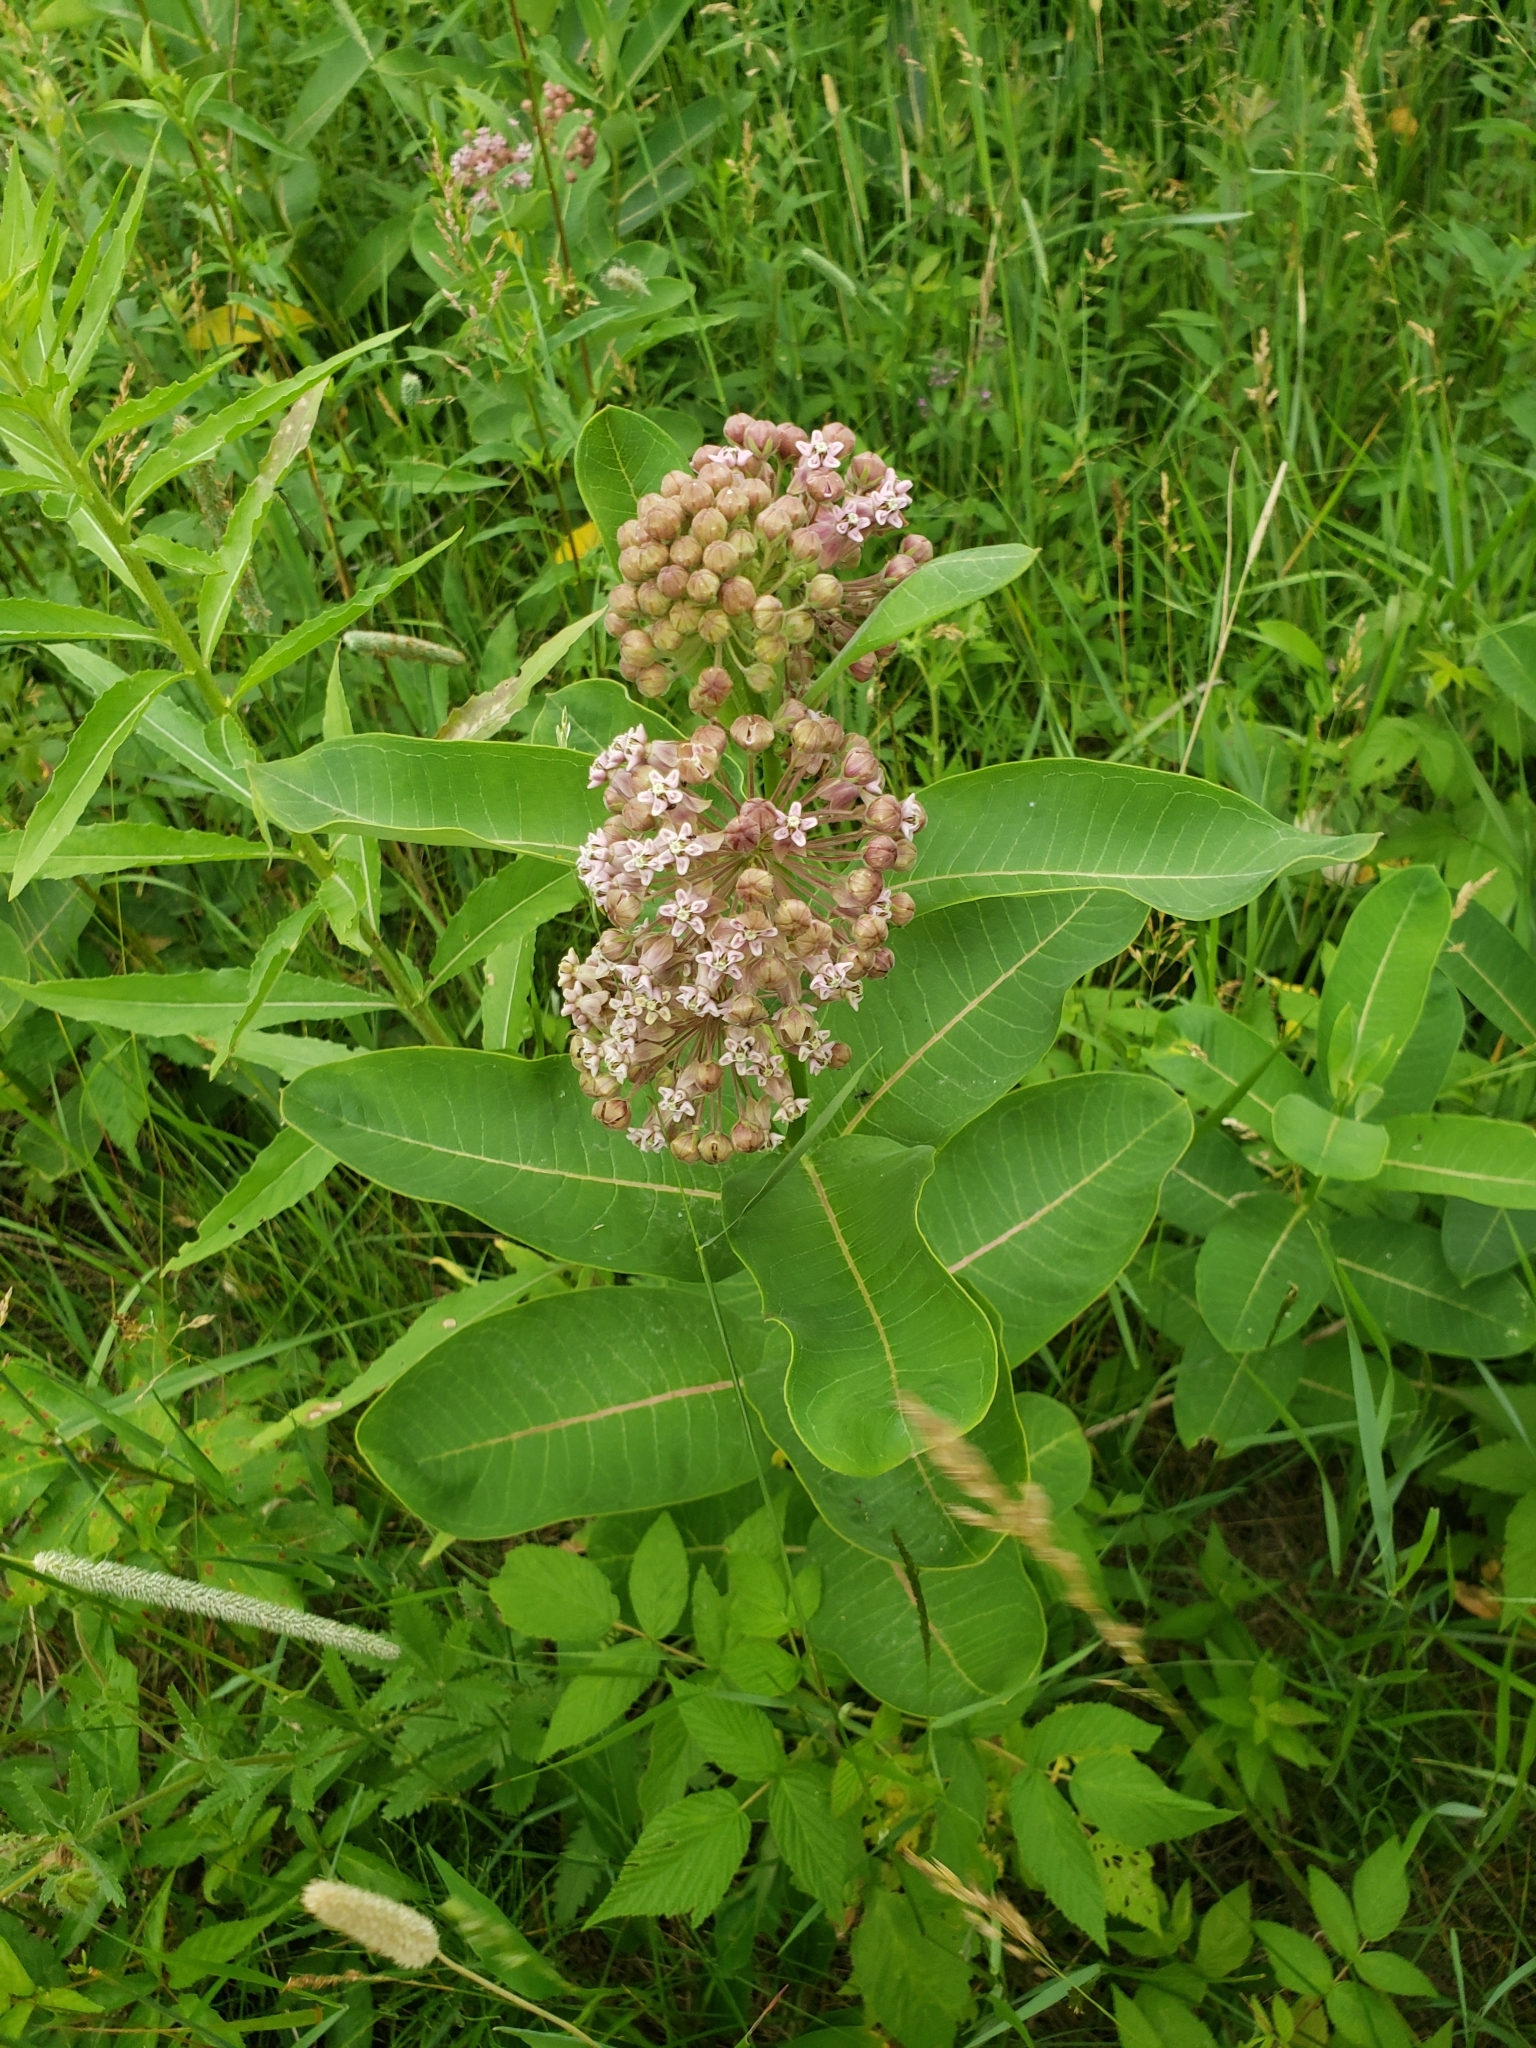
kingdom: Plantae
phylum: Tracheophyta
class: Magnoliopsida
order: Gentianales
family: Apocynaceae
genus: Asclepias
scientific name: Asclepias syriaca
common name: Common milkweed
